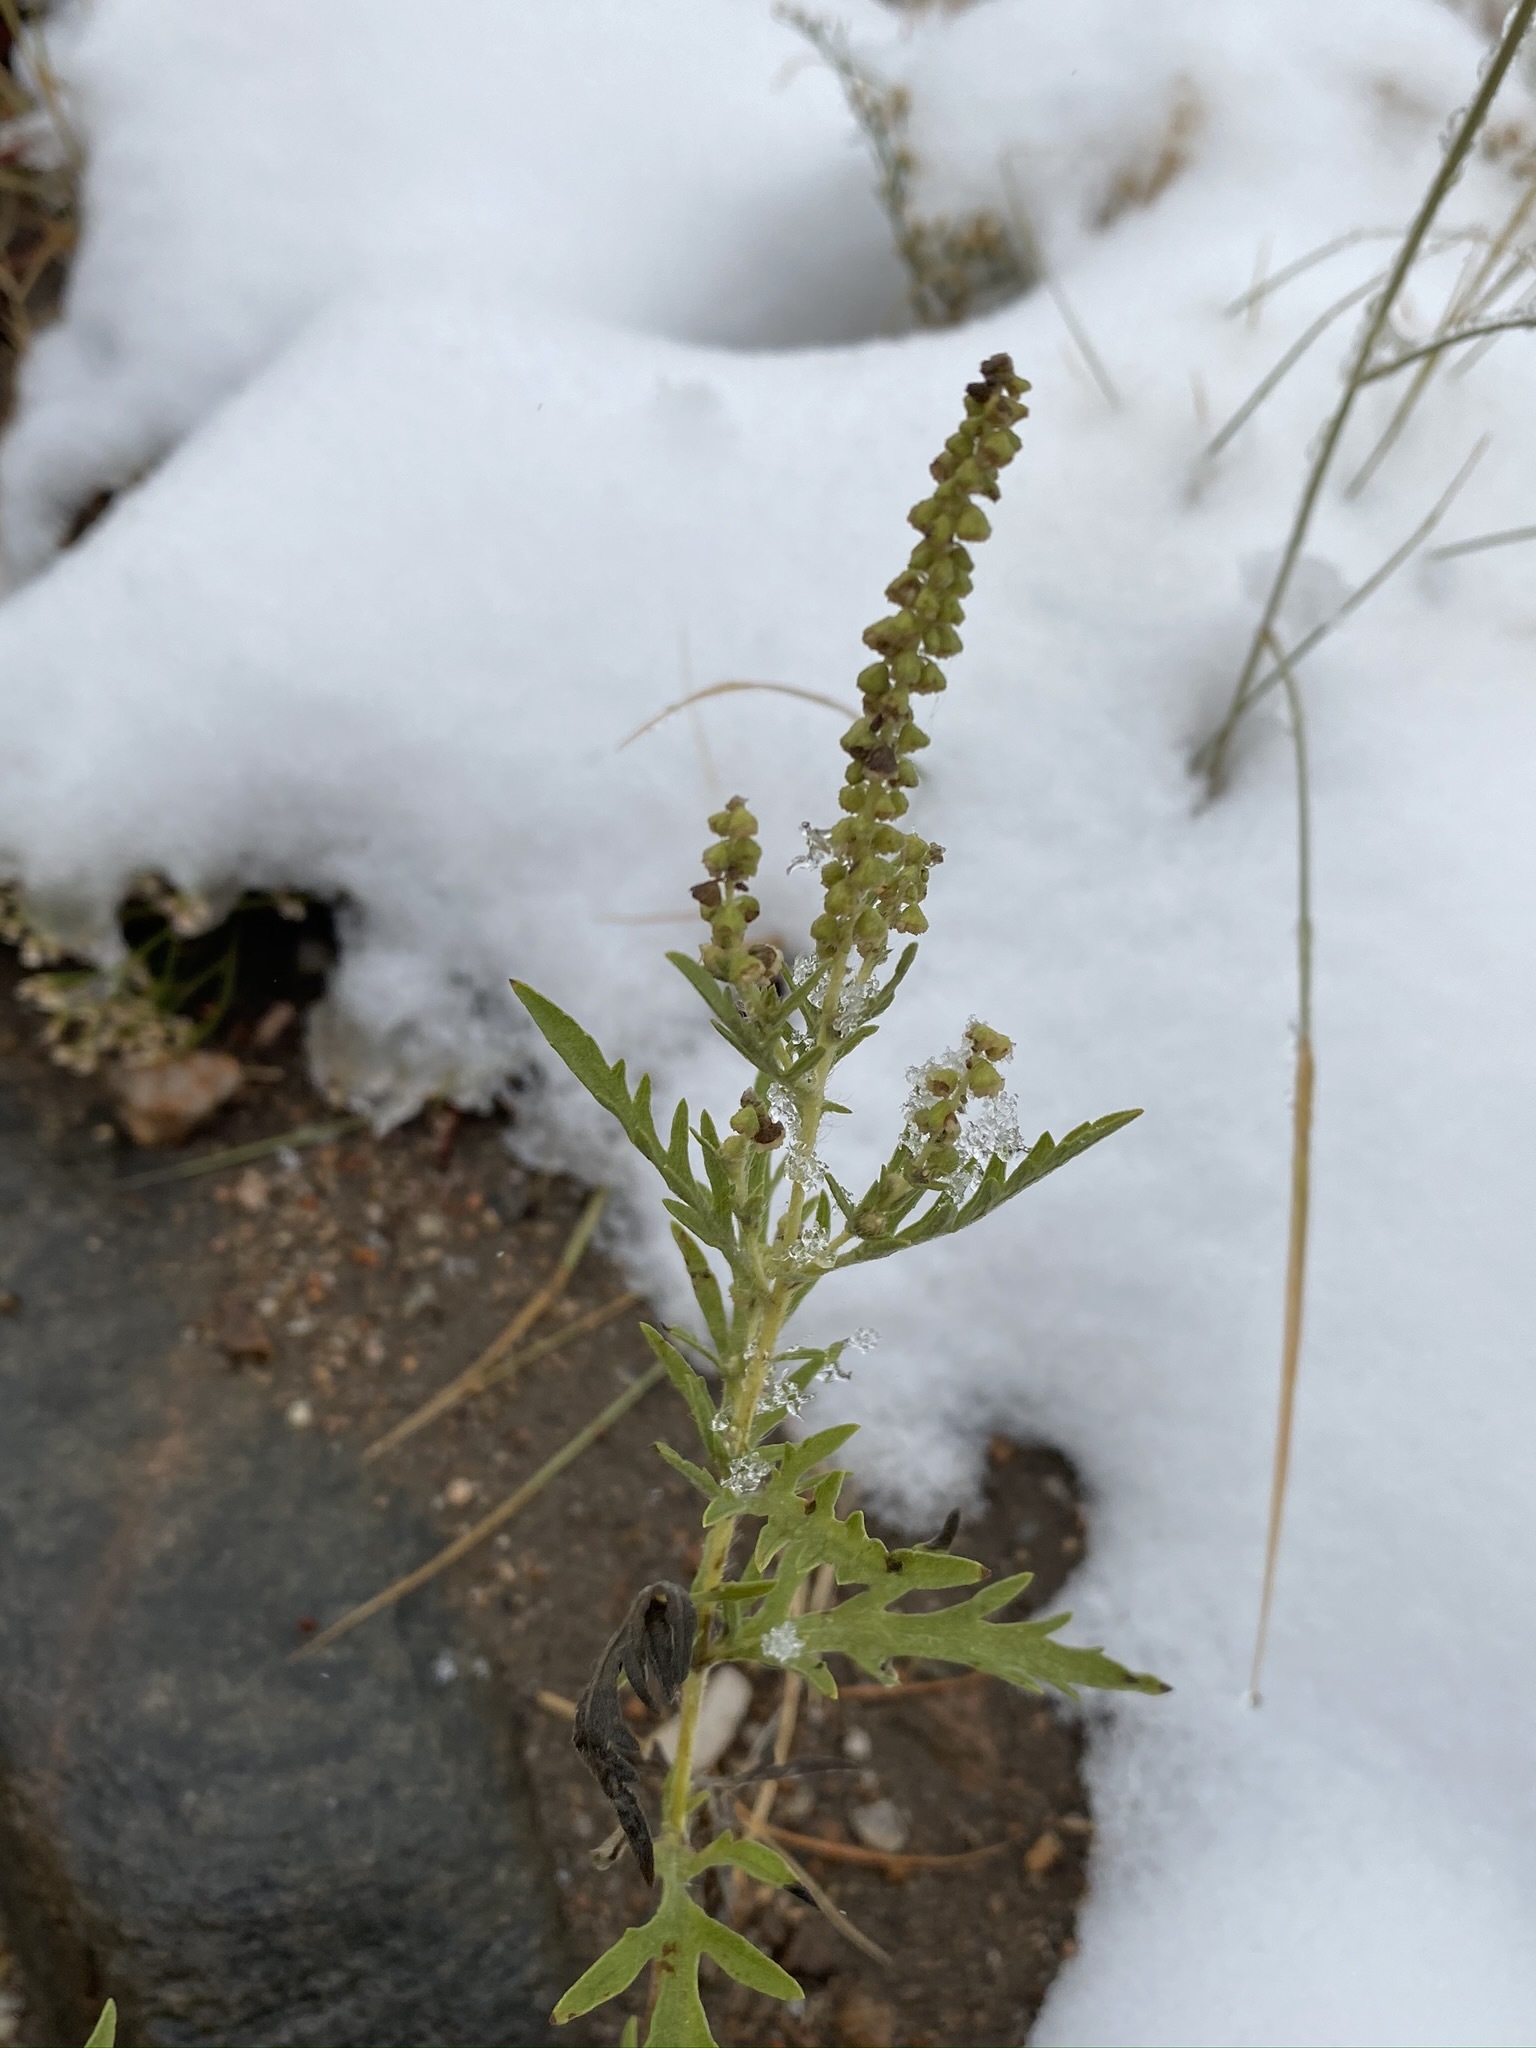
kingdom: Plantae
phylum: Tracheophyta
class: Magnoliopsida
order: Asterales
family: Asteraceae
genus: Ambrosia
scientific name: Ambrosia psilostachya
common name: Perennial ragweed
